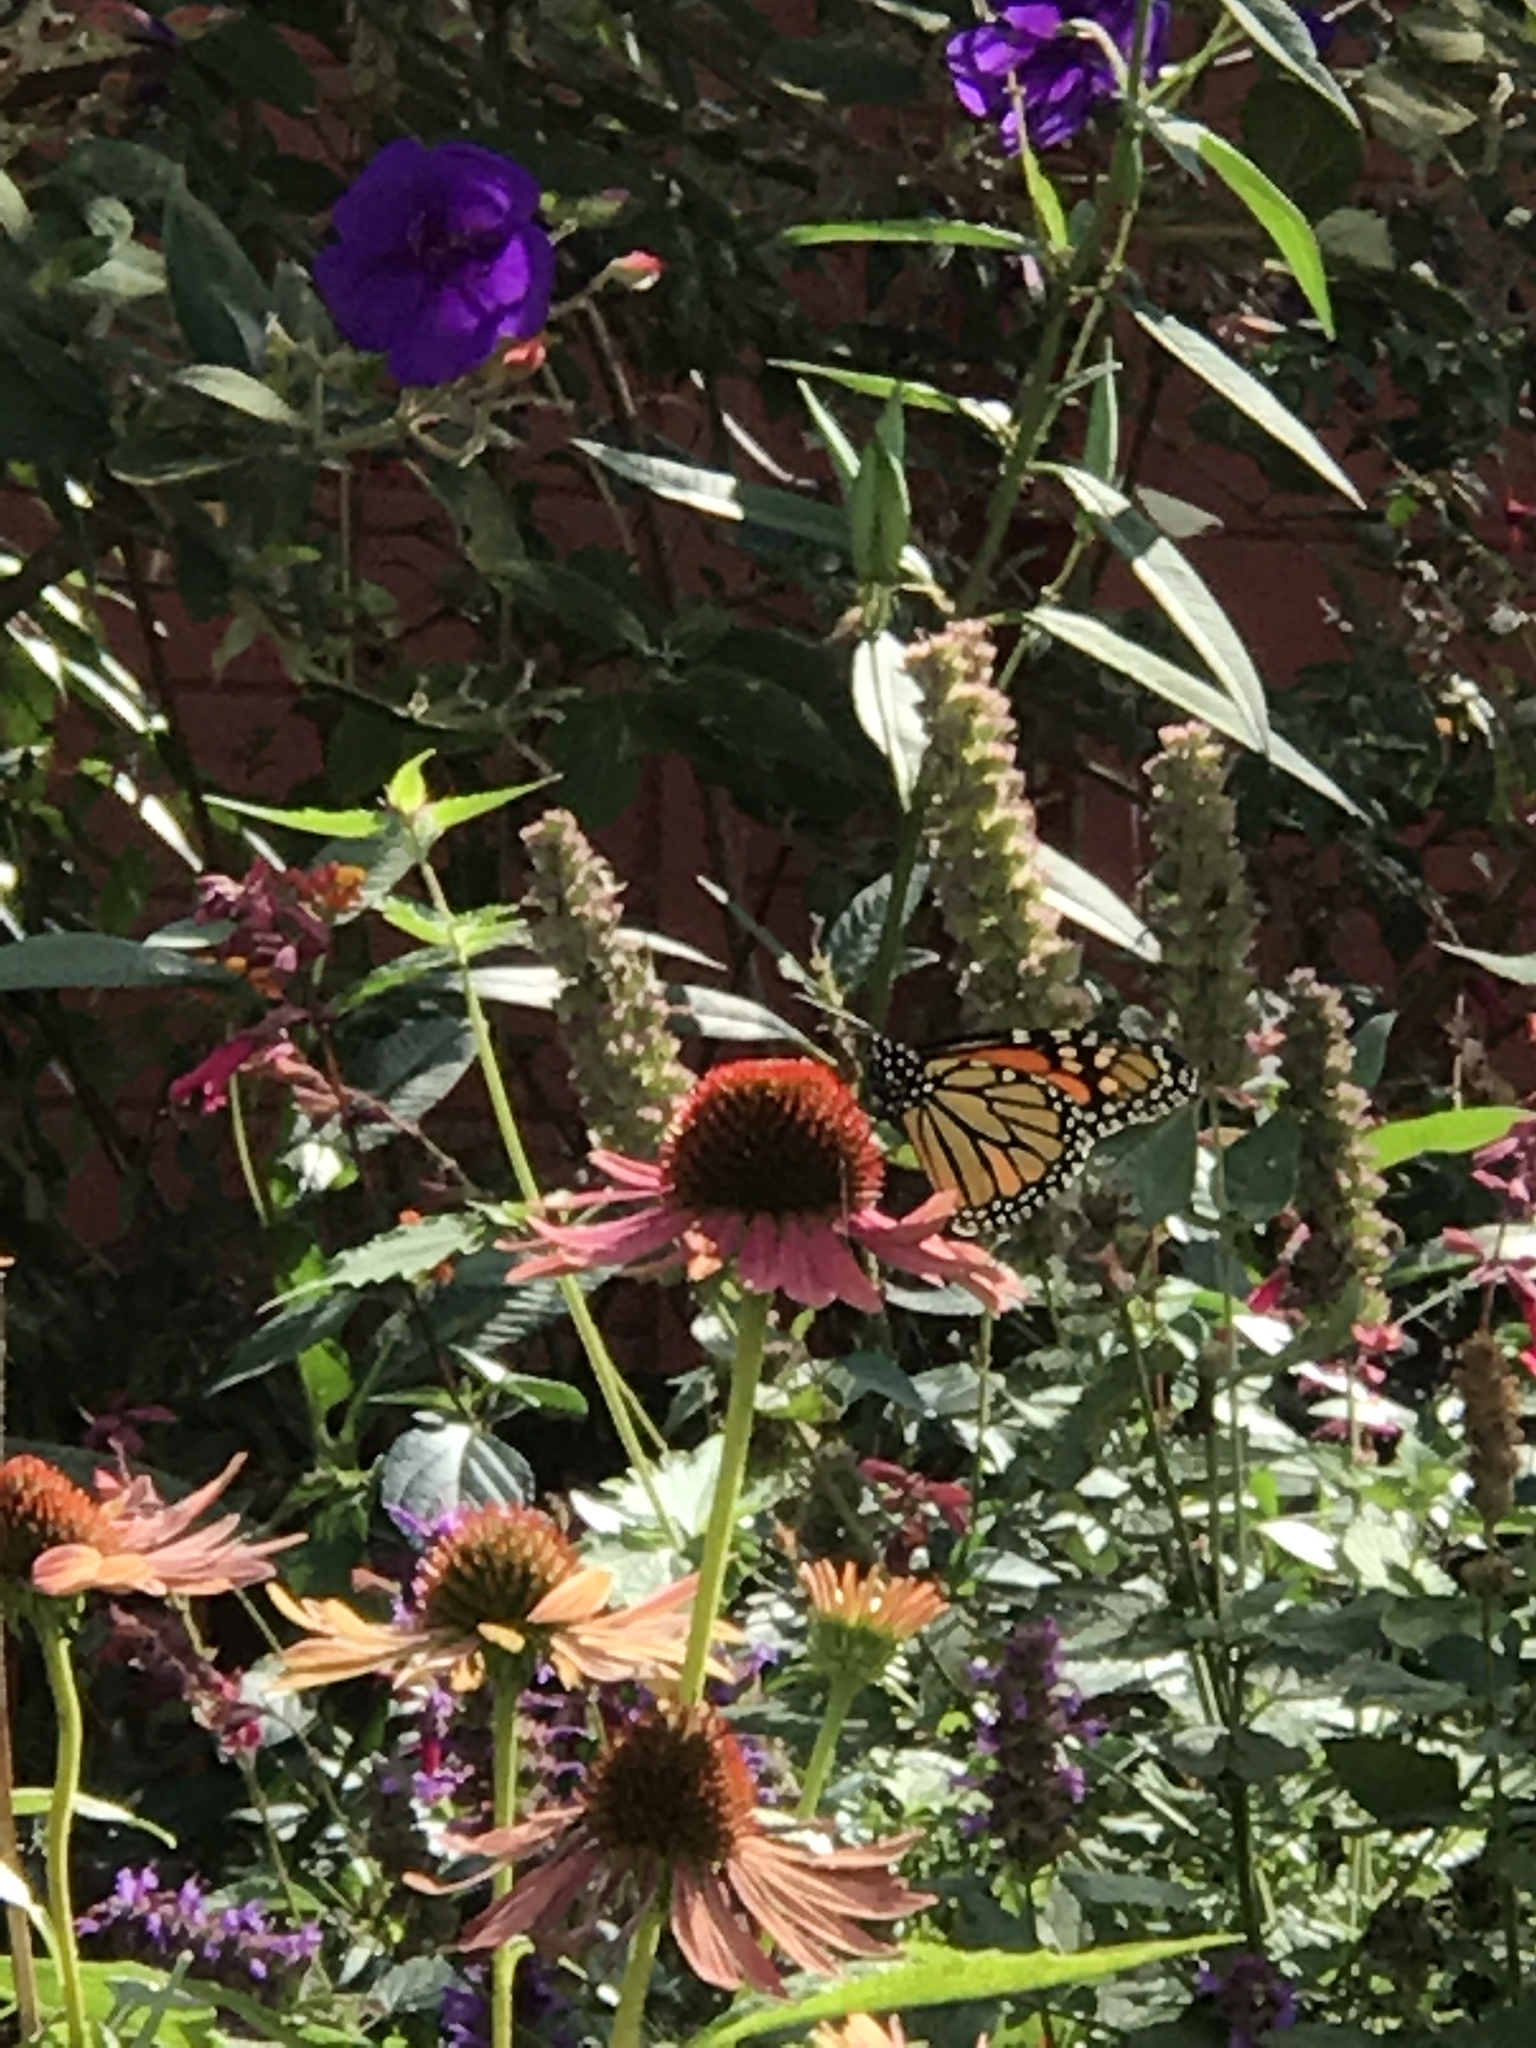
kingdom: Animalia
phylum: Arthropoda
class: Insecta
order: Lepidoptera
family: Nymphalidae
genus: Danaus
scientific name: Danaus plexippus
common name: Monarch
